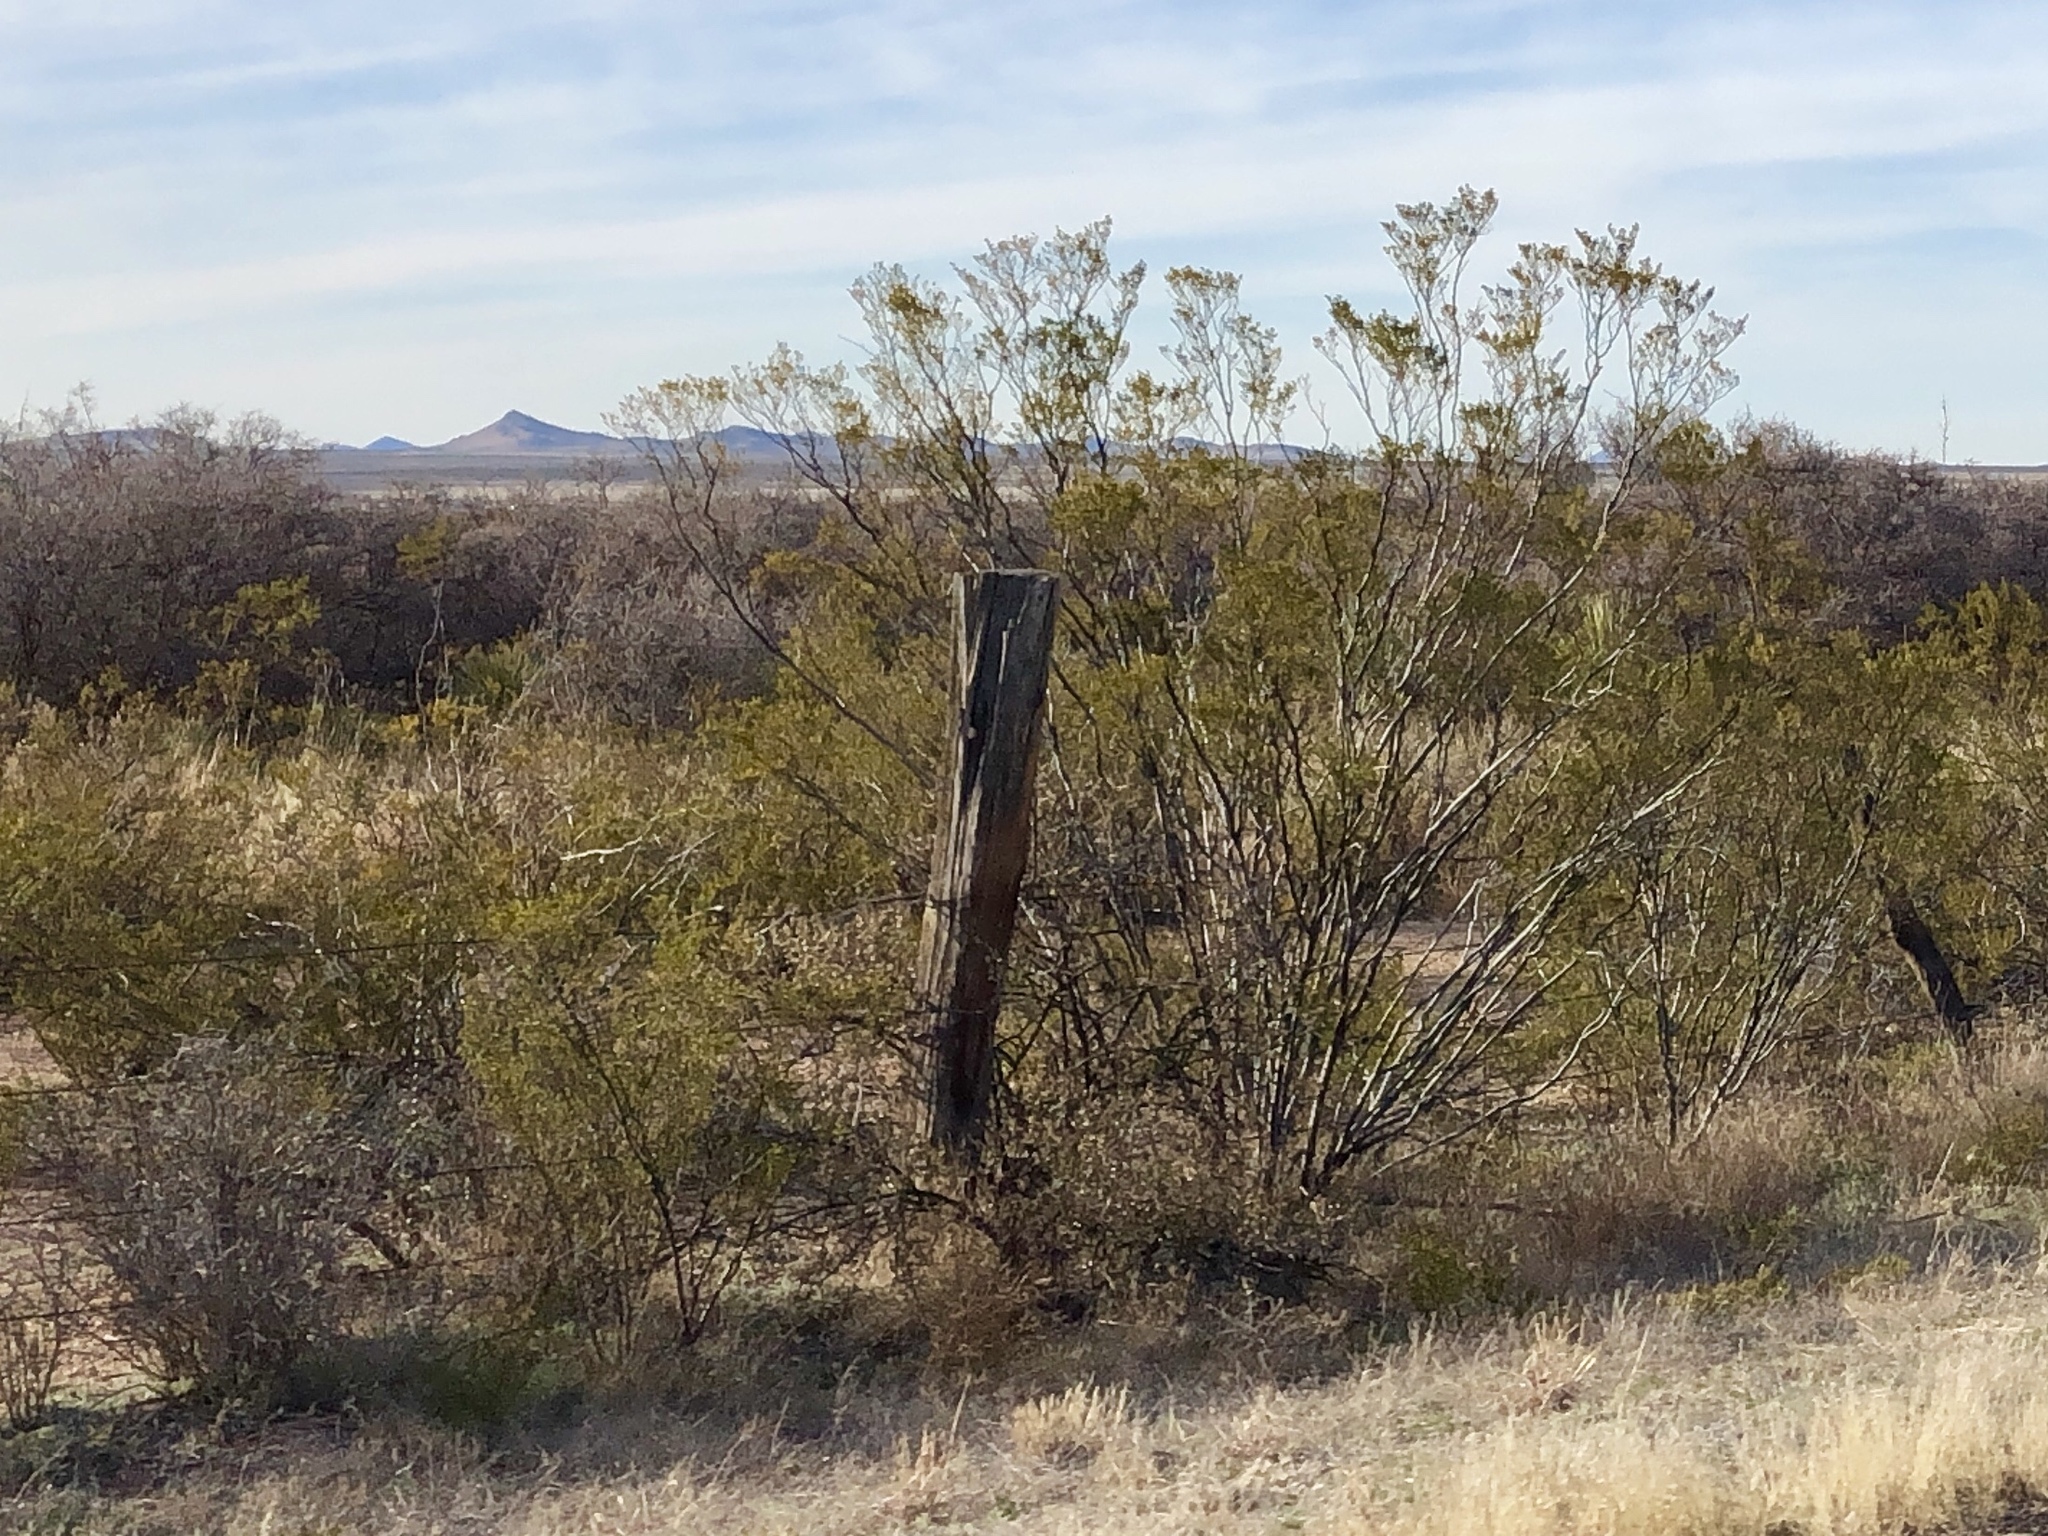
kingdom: Plantae
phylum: Tracheophyta
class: Magnoliopsida
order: Zygophyllales
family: Zygophyllaceae
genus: Larrea
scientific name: Larrea tridentata
